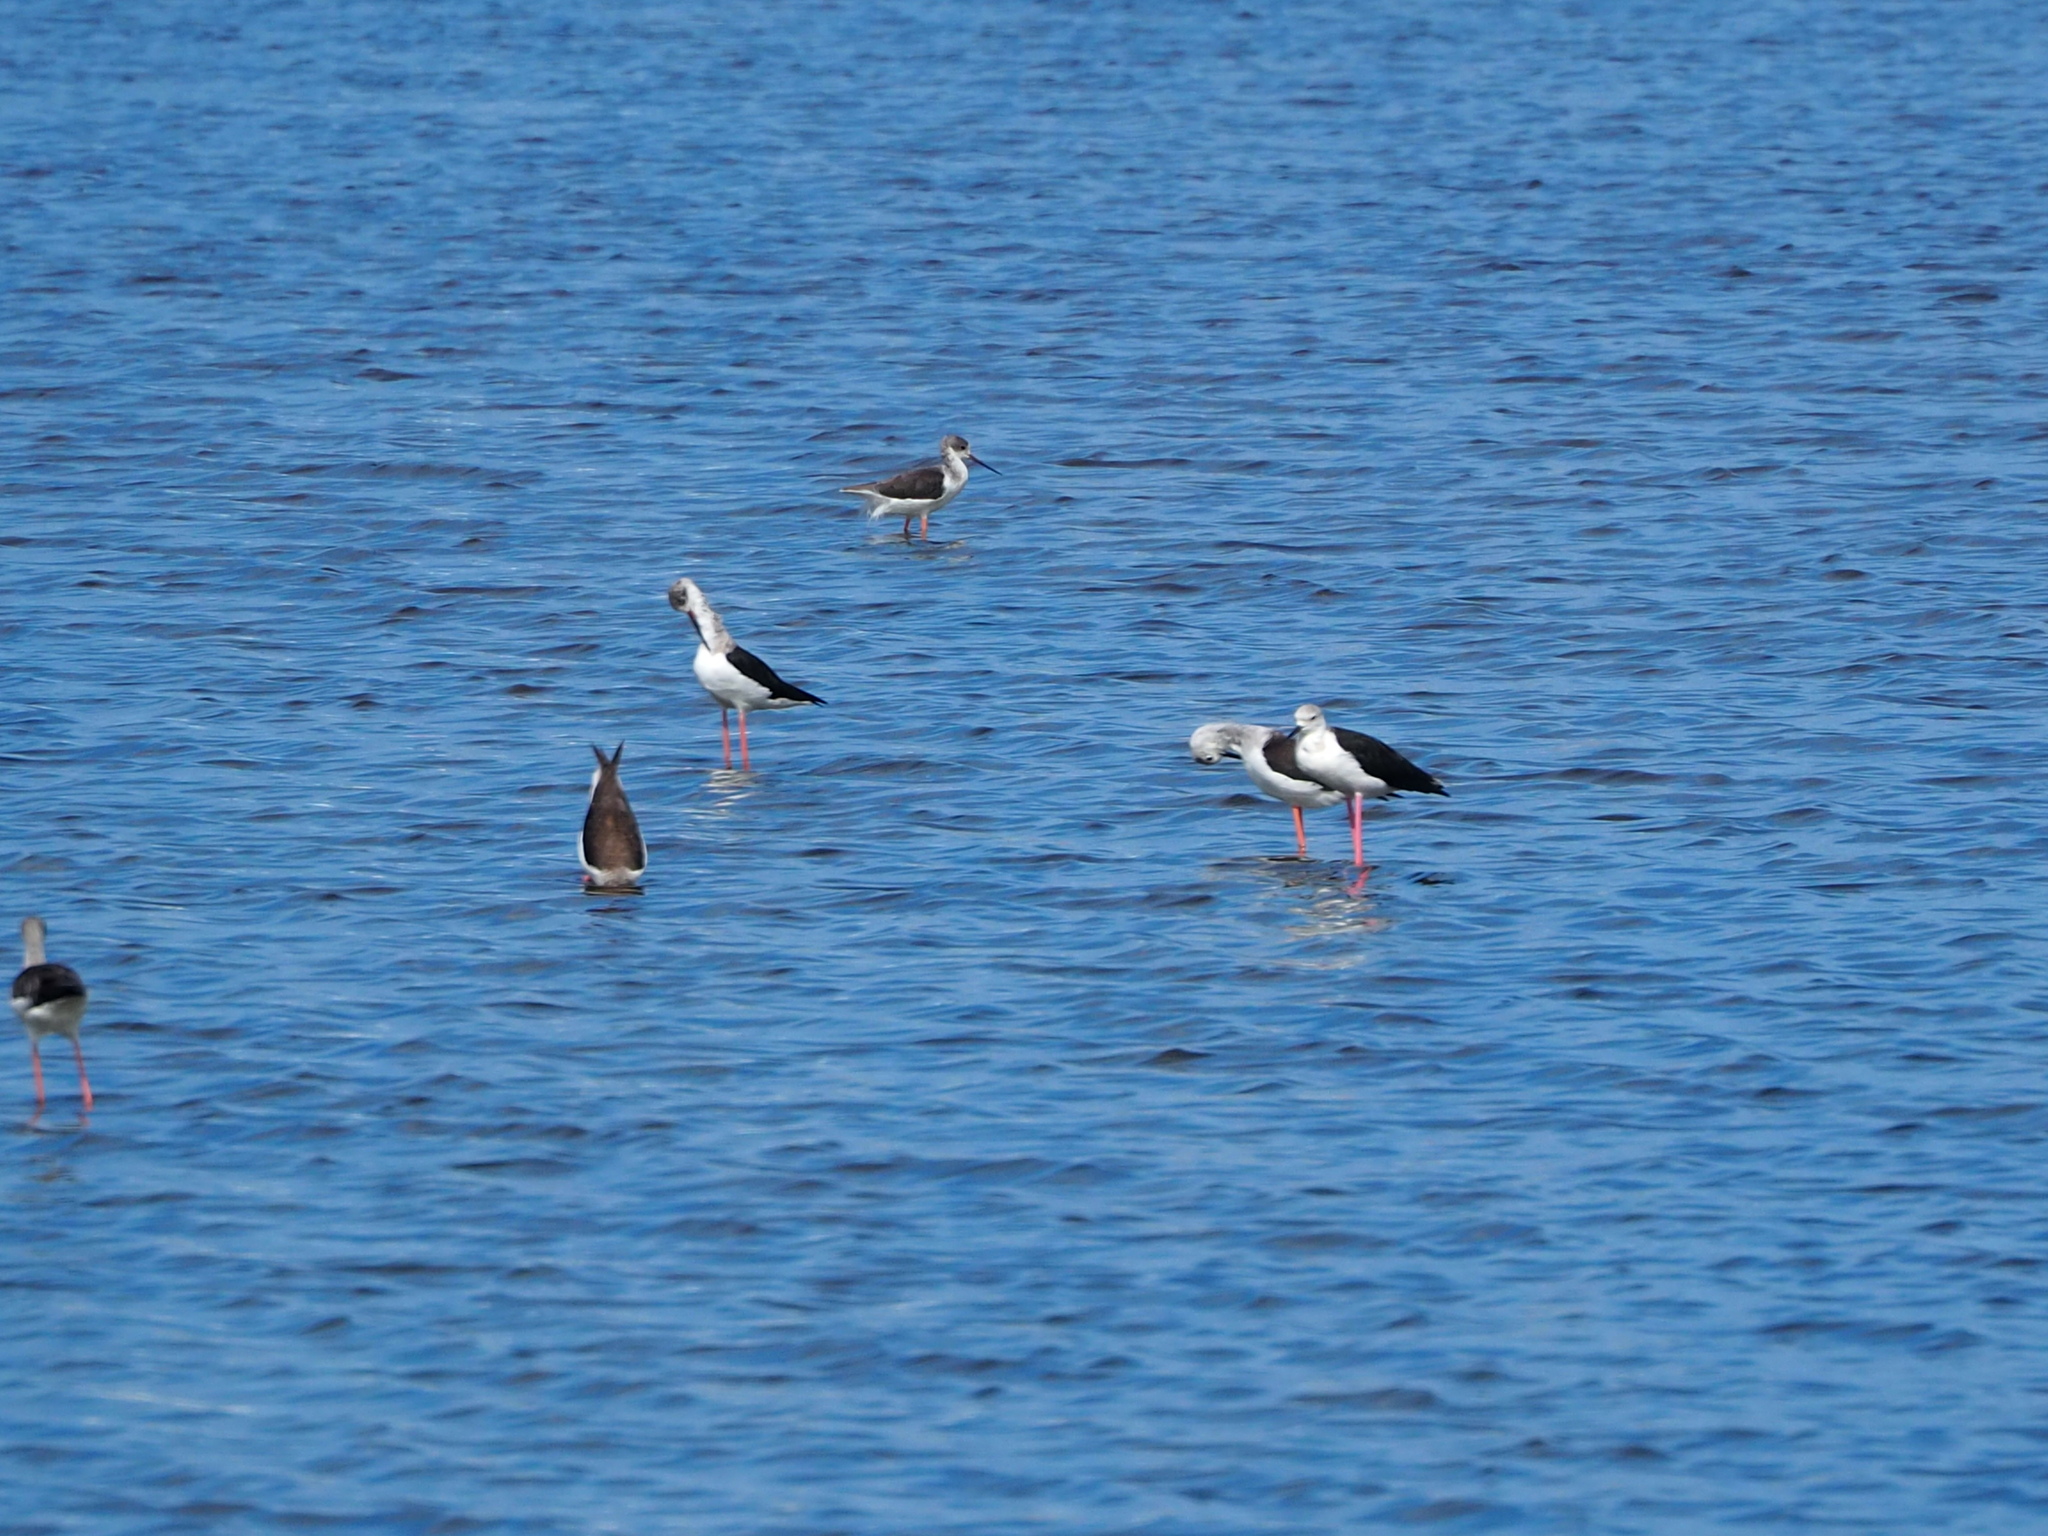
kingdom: Animalia
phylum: Chordata
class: Aves
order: Charadriiformes
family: Recurvirostridae
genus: Himantopus
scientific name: Himantopus himantopus
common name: Black-winged stilt
